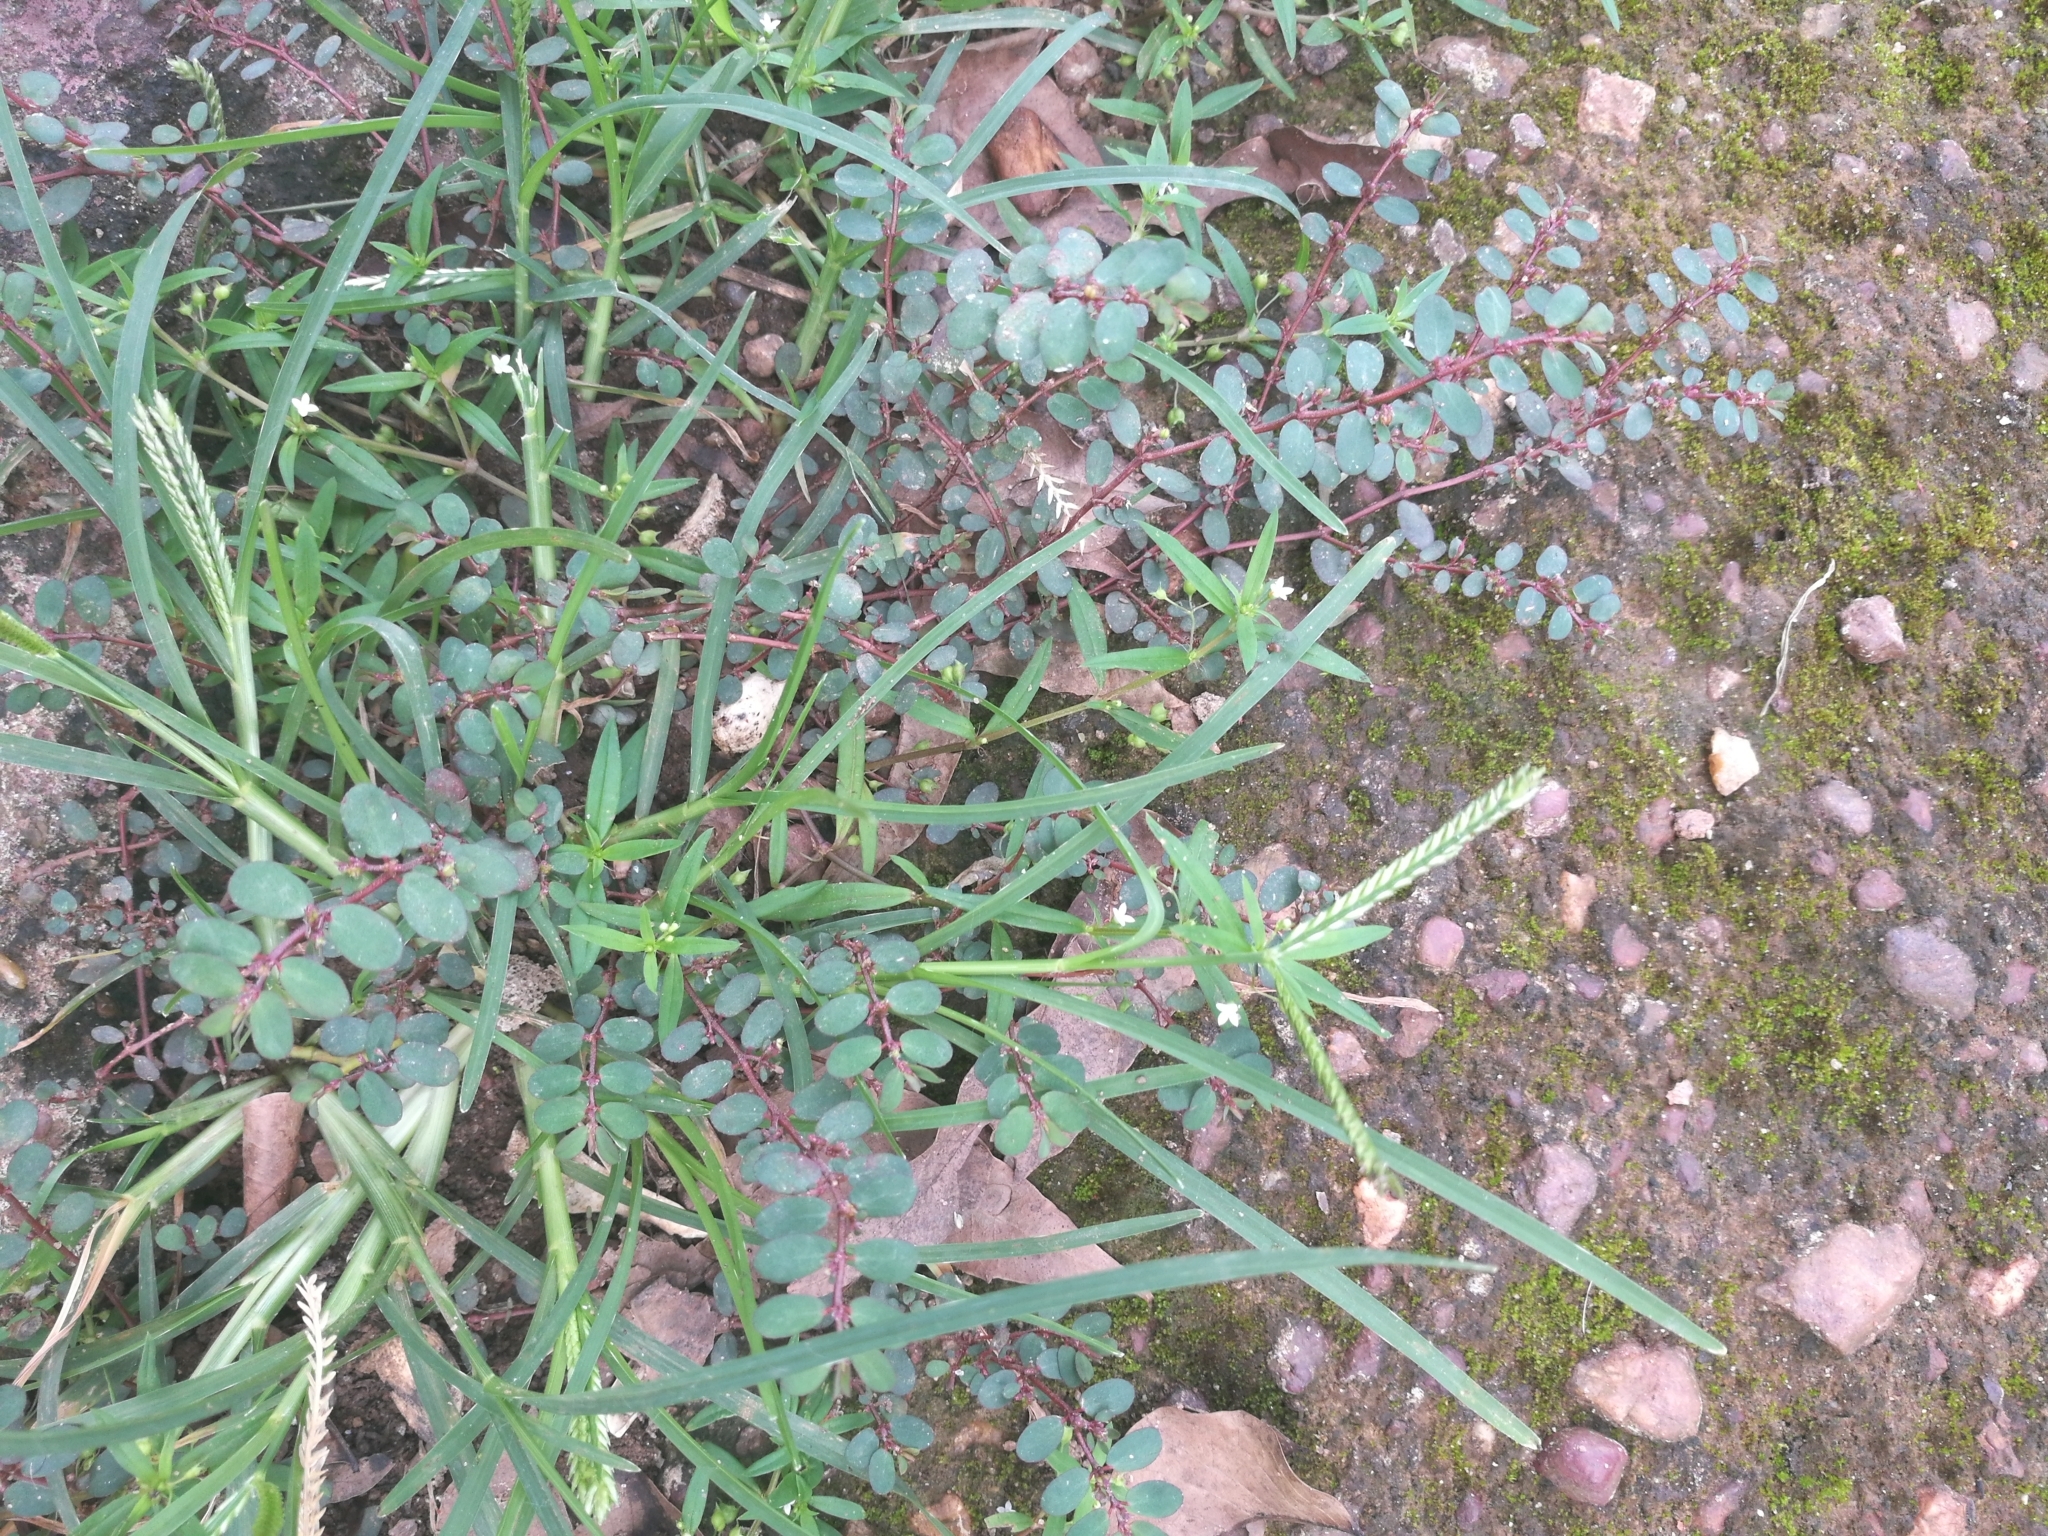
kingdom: Plantae
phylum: Tracheophyta
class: Magnoliopsida
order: Malpighiales
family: Euphorbiaceae
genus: Euphorbia
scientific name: Euphorbia prostrata
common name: Prostrate sandmat
